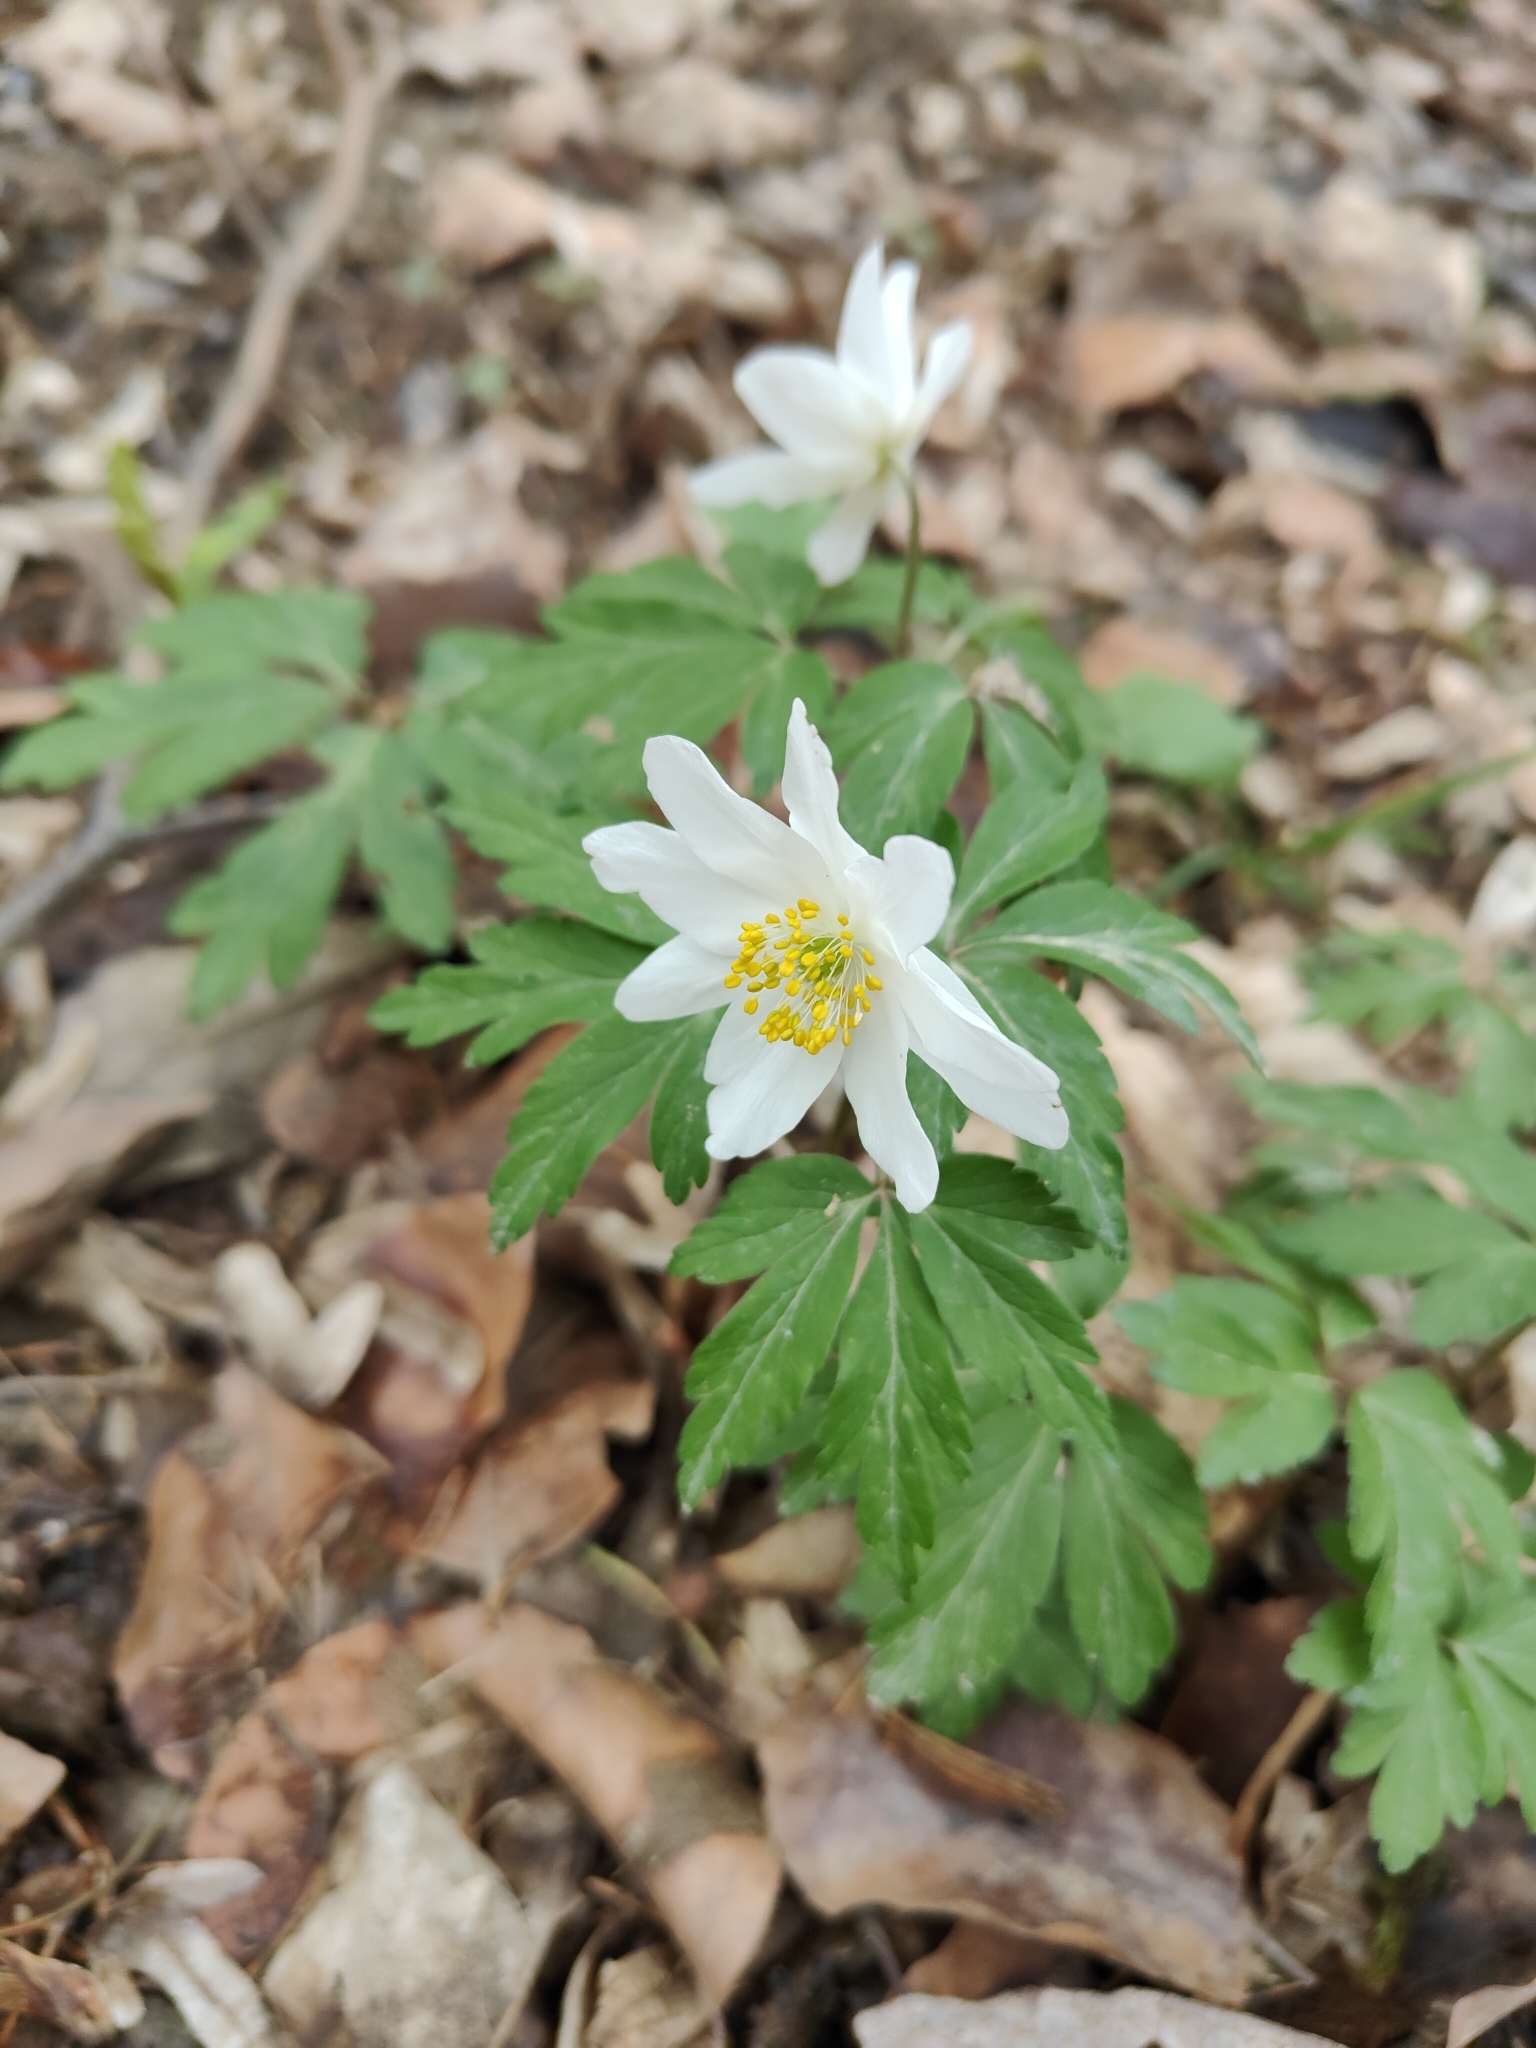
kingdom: Plantae
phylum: Tracheophyta
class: Magnoliopsida
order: Ranunculales
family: Ranunculaceae
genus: Anemone
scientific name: Anemone nemorosa
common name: Wood anemone
